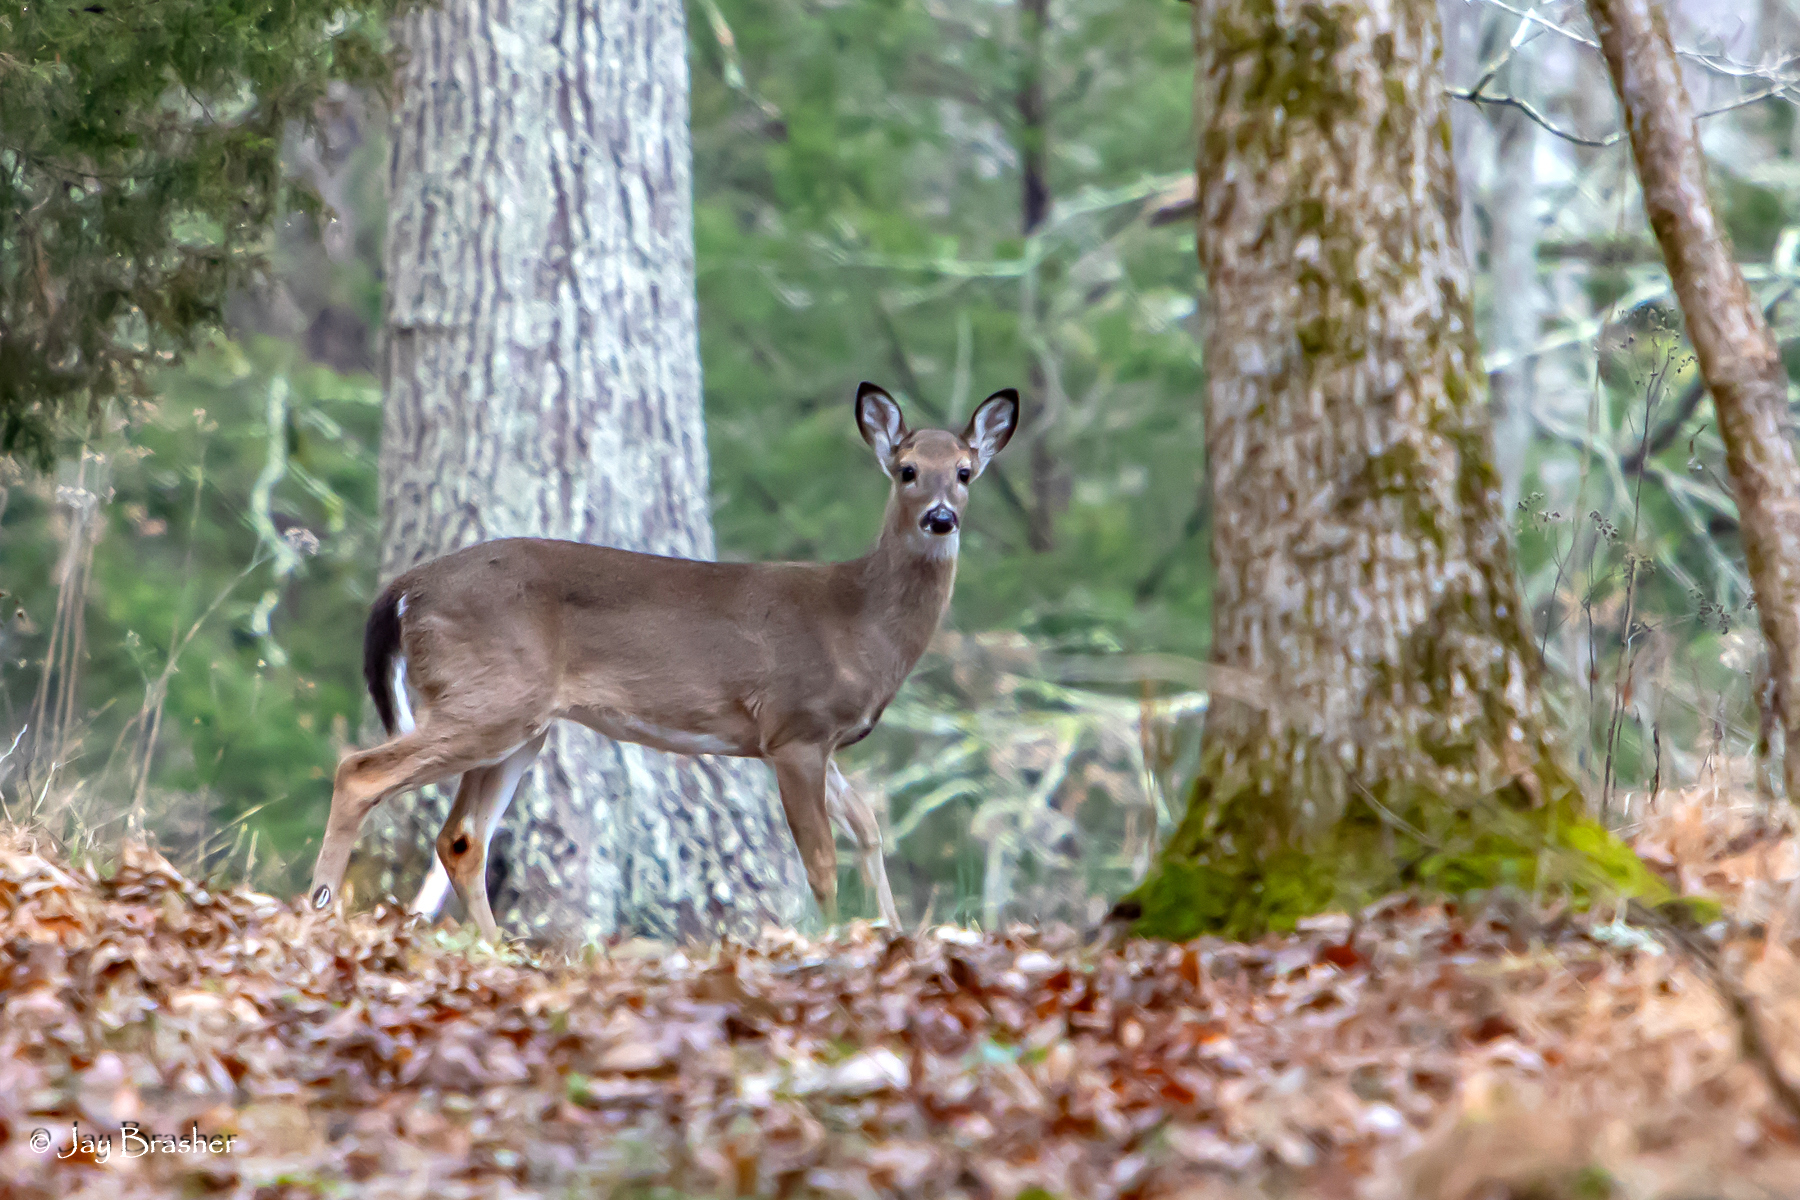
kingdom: Animalia
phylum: Chordata
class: Mammalia
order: Artiodactyla
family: Cervidae
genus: Odocoileus
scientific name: Odocoileus virginianus
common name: White-tailed deer
